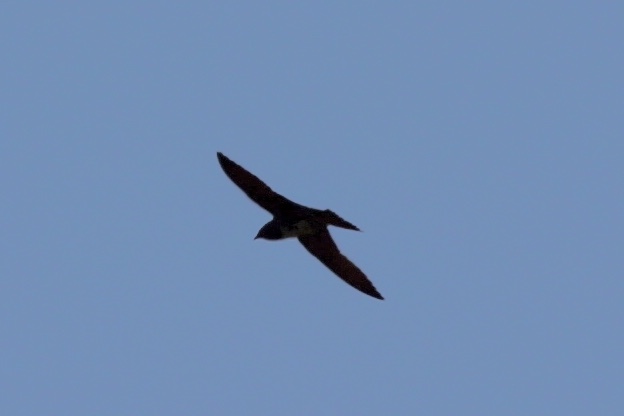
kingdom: Animalia
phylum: Chordata
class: Aves
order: Passeriformes
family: Hirundinidae
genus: Progne
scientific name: Progne subis
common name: Purple martin
